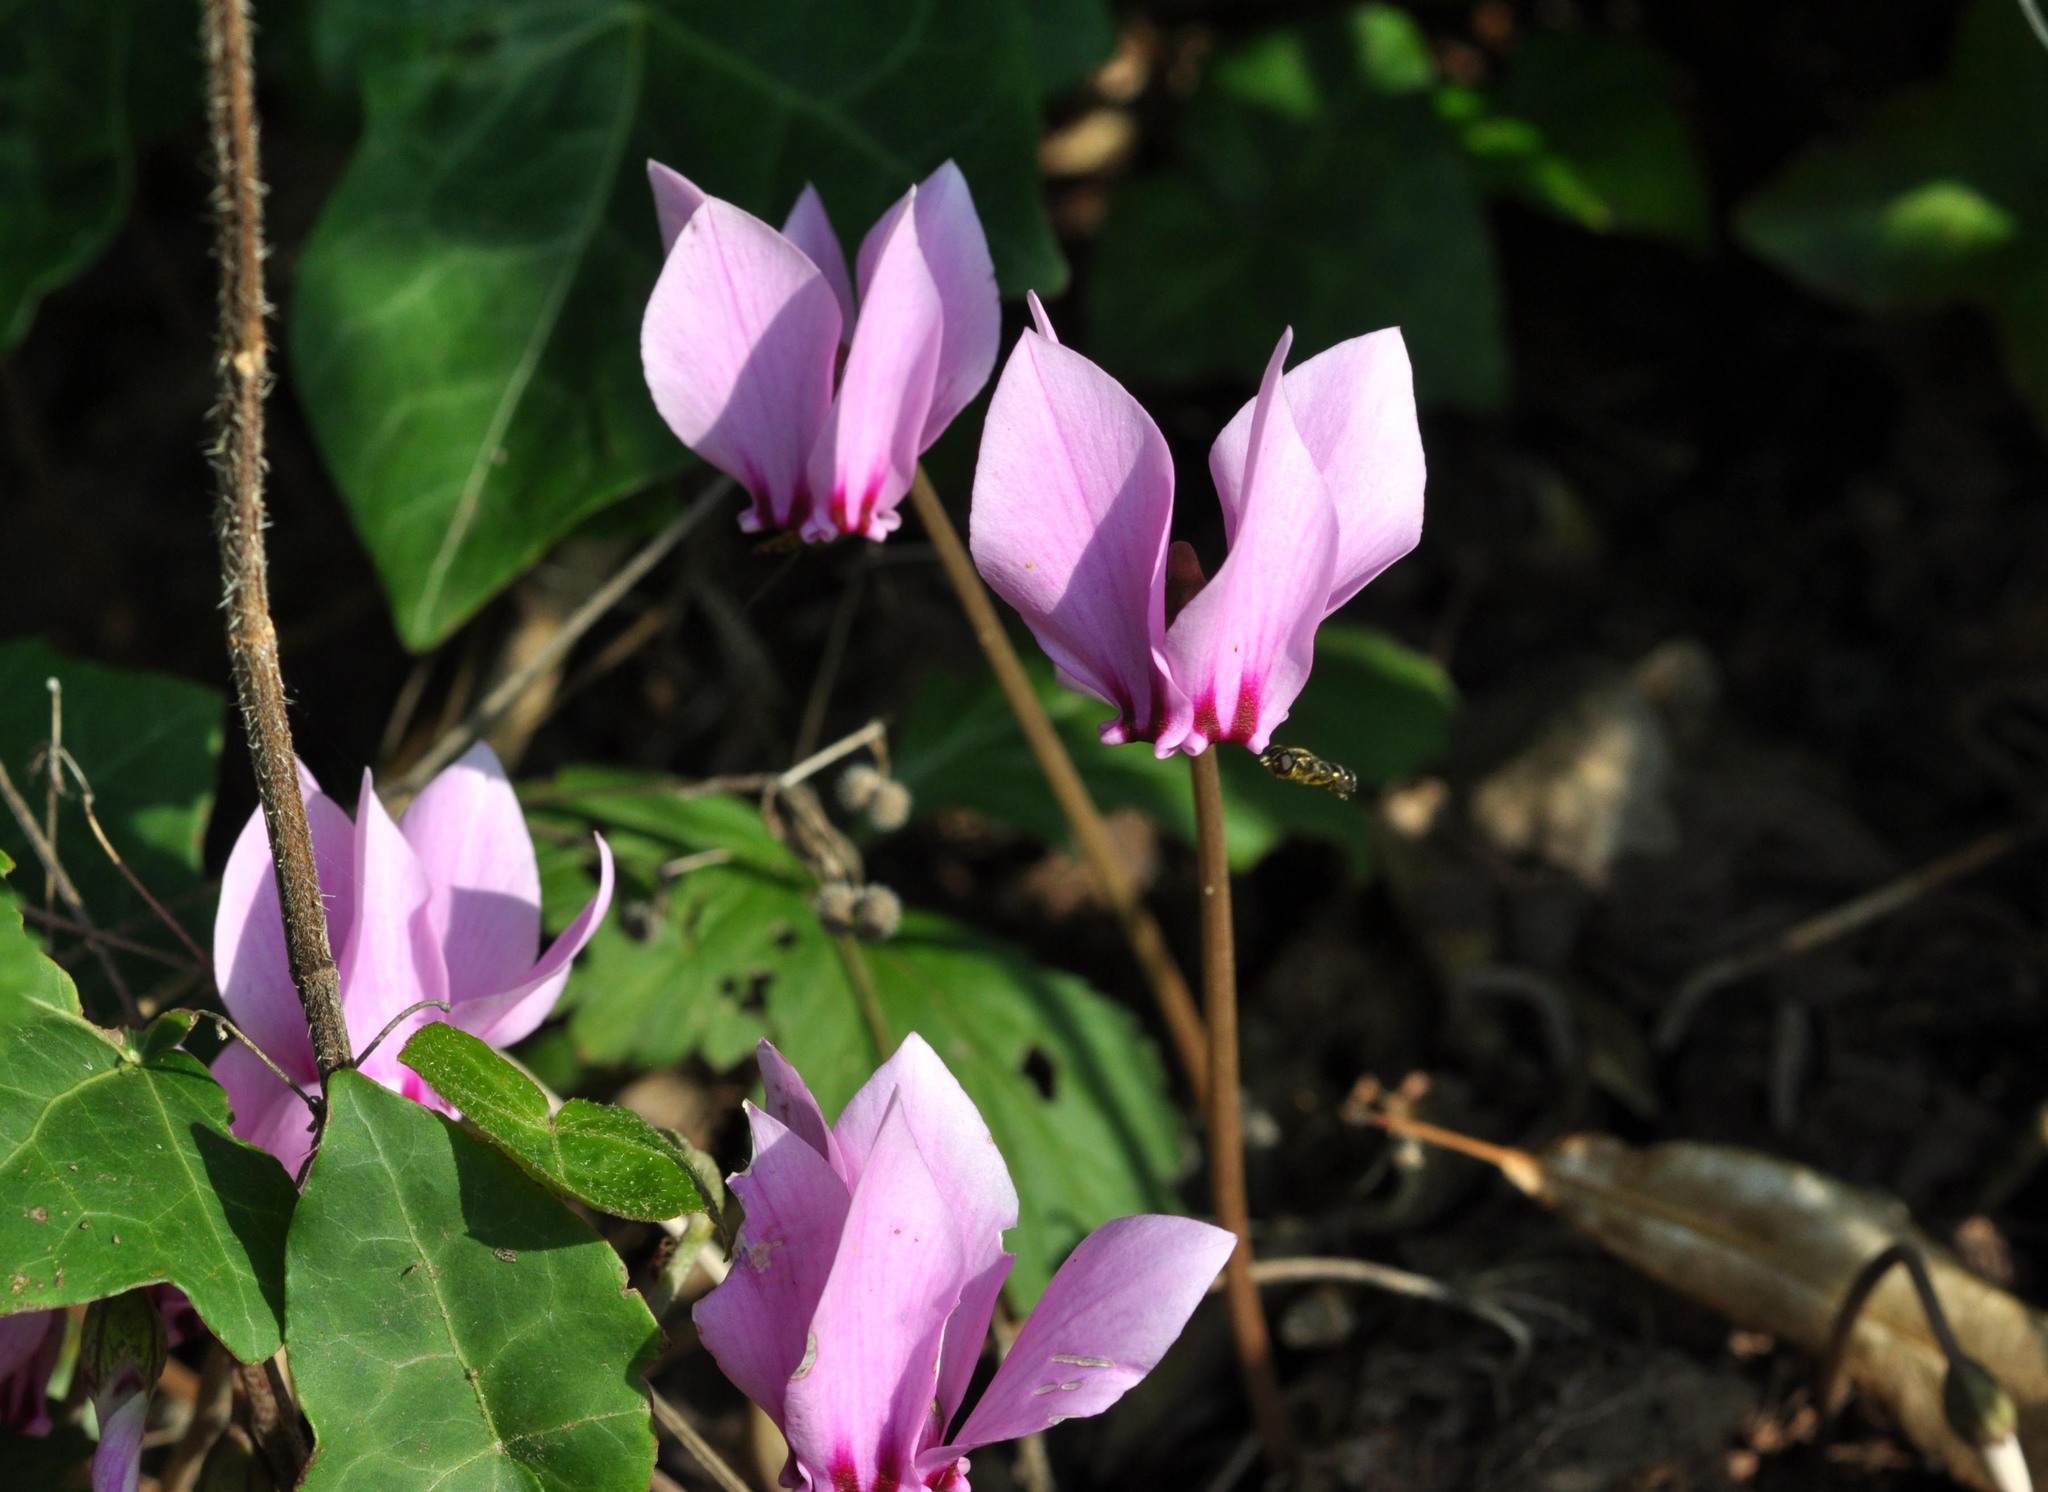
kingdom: Plantae
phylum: Tracheophyta
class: Magnoliopsida
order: Ericales
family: Primulaceae
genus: Cyclamen
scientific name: Cyclamen hederifolium
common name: Sowbread
